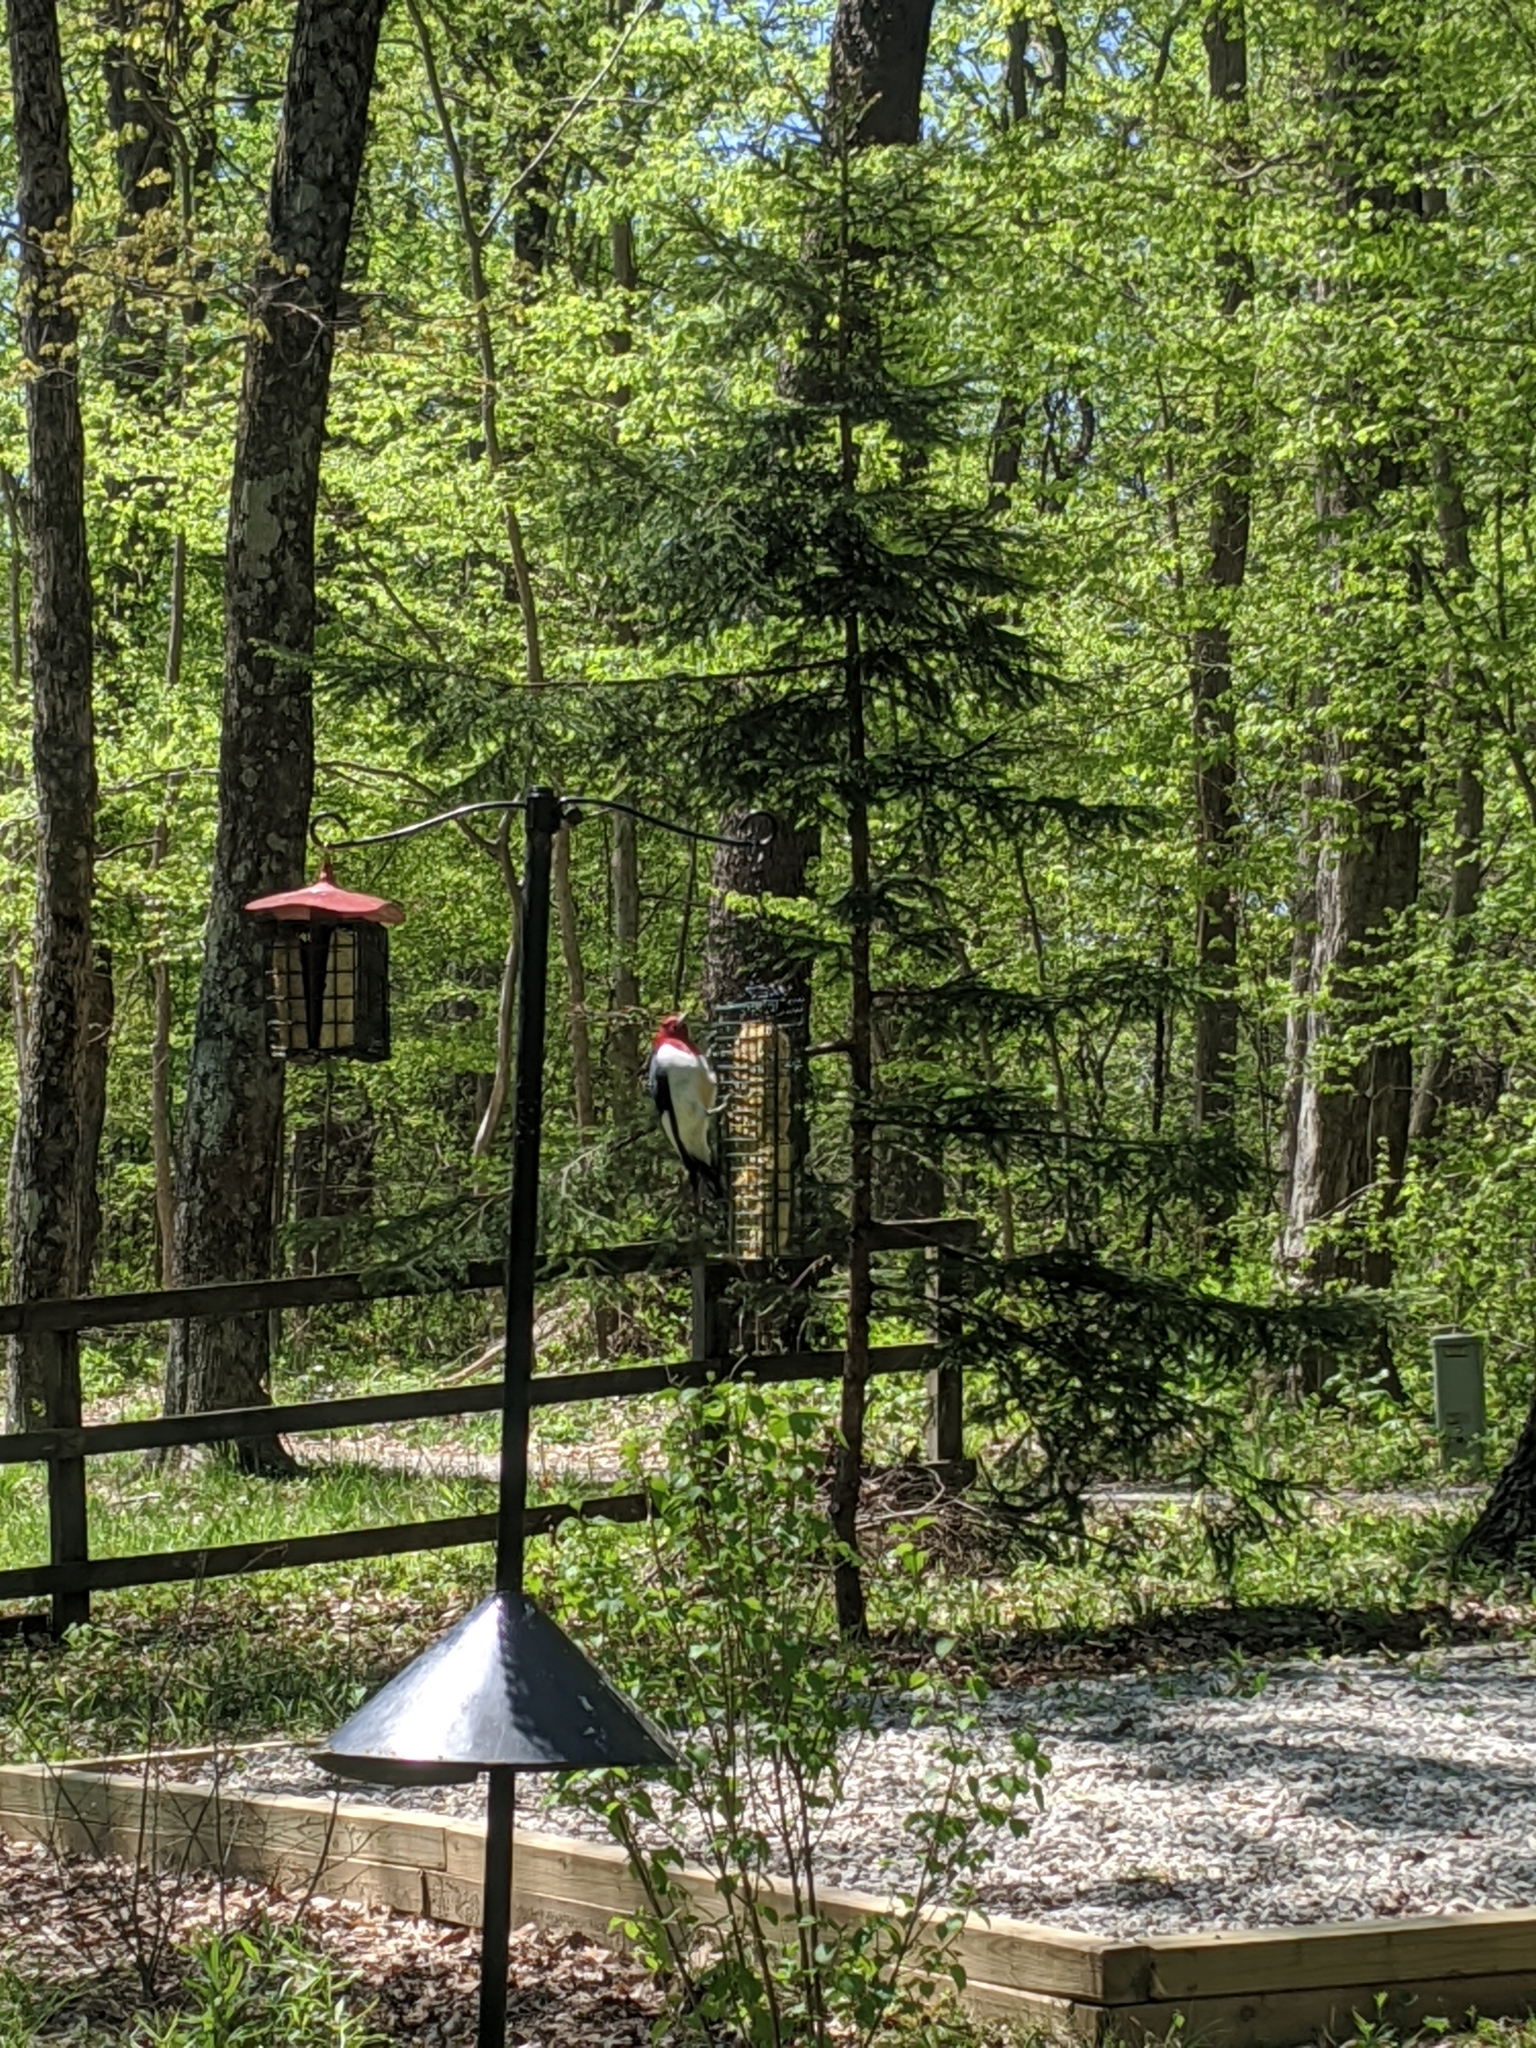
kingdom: Animalia
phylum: Chordata
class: Aves
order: Piciformes
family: Picidae
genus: Melanerpes
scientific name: Melanerpes erythrocephalus
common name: Red-headed woodpecker
